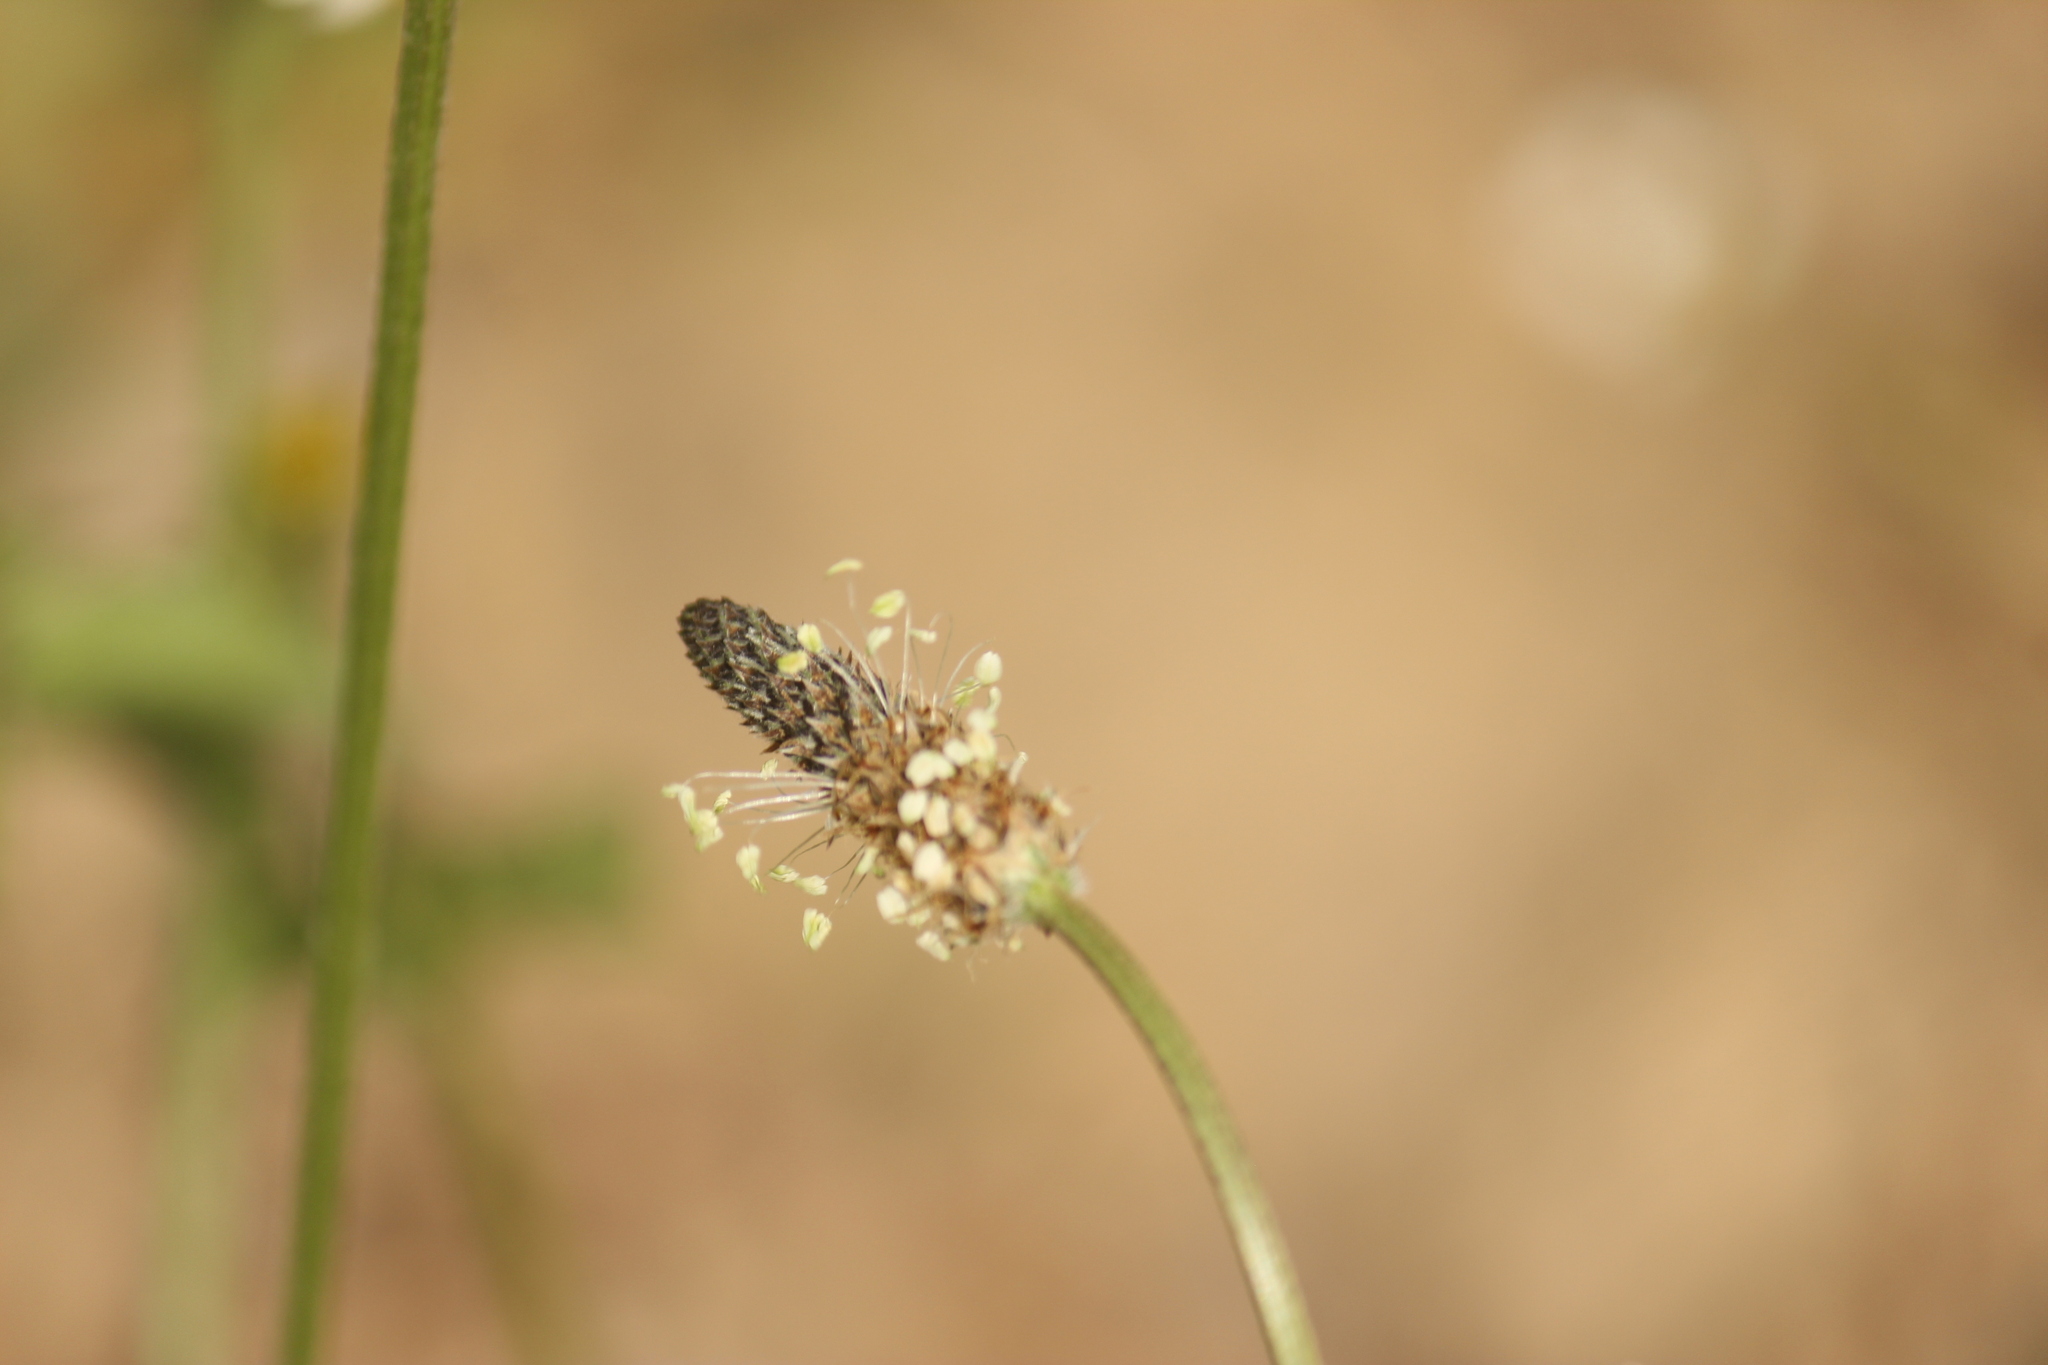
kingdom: Plantae
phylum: Tracheophyta
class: Magnoliopsida
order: Lamiales
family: Plantaginaceae
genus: Plantago
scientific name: Plantago lanceolata
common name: Ribwort plantain
